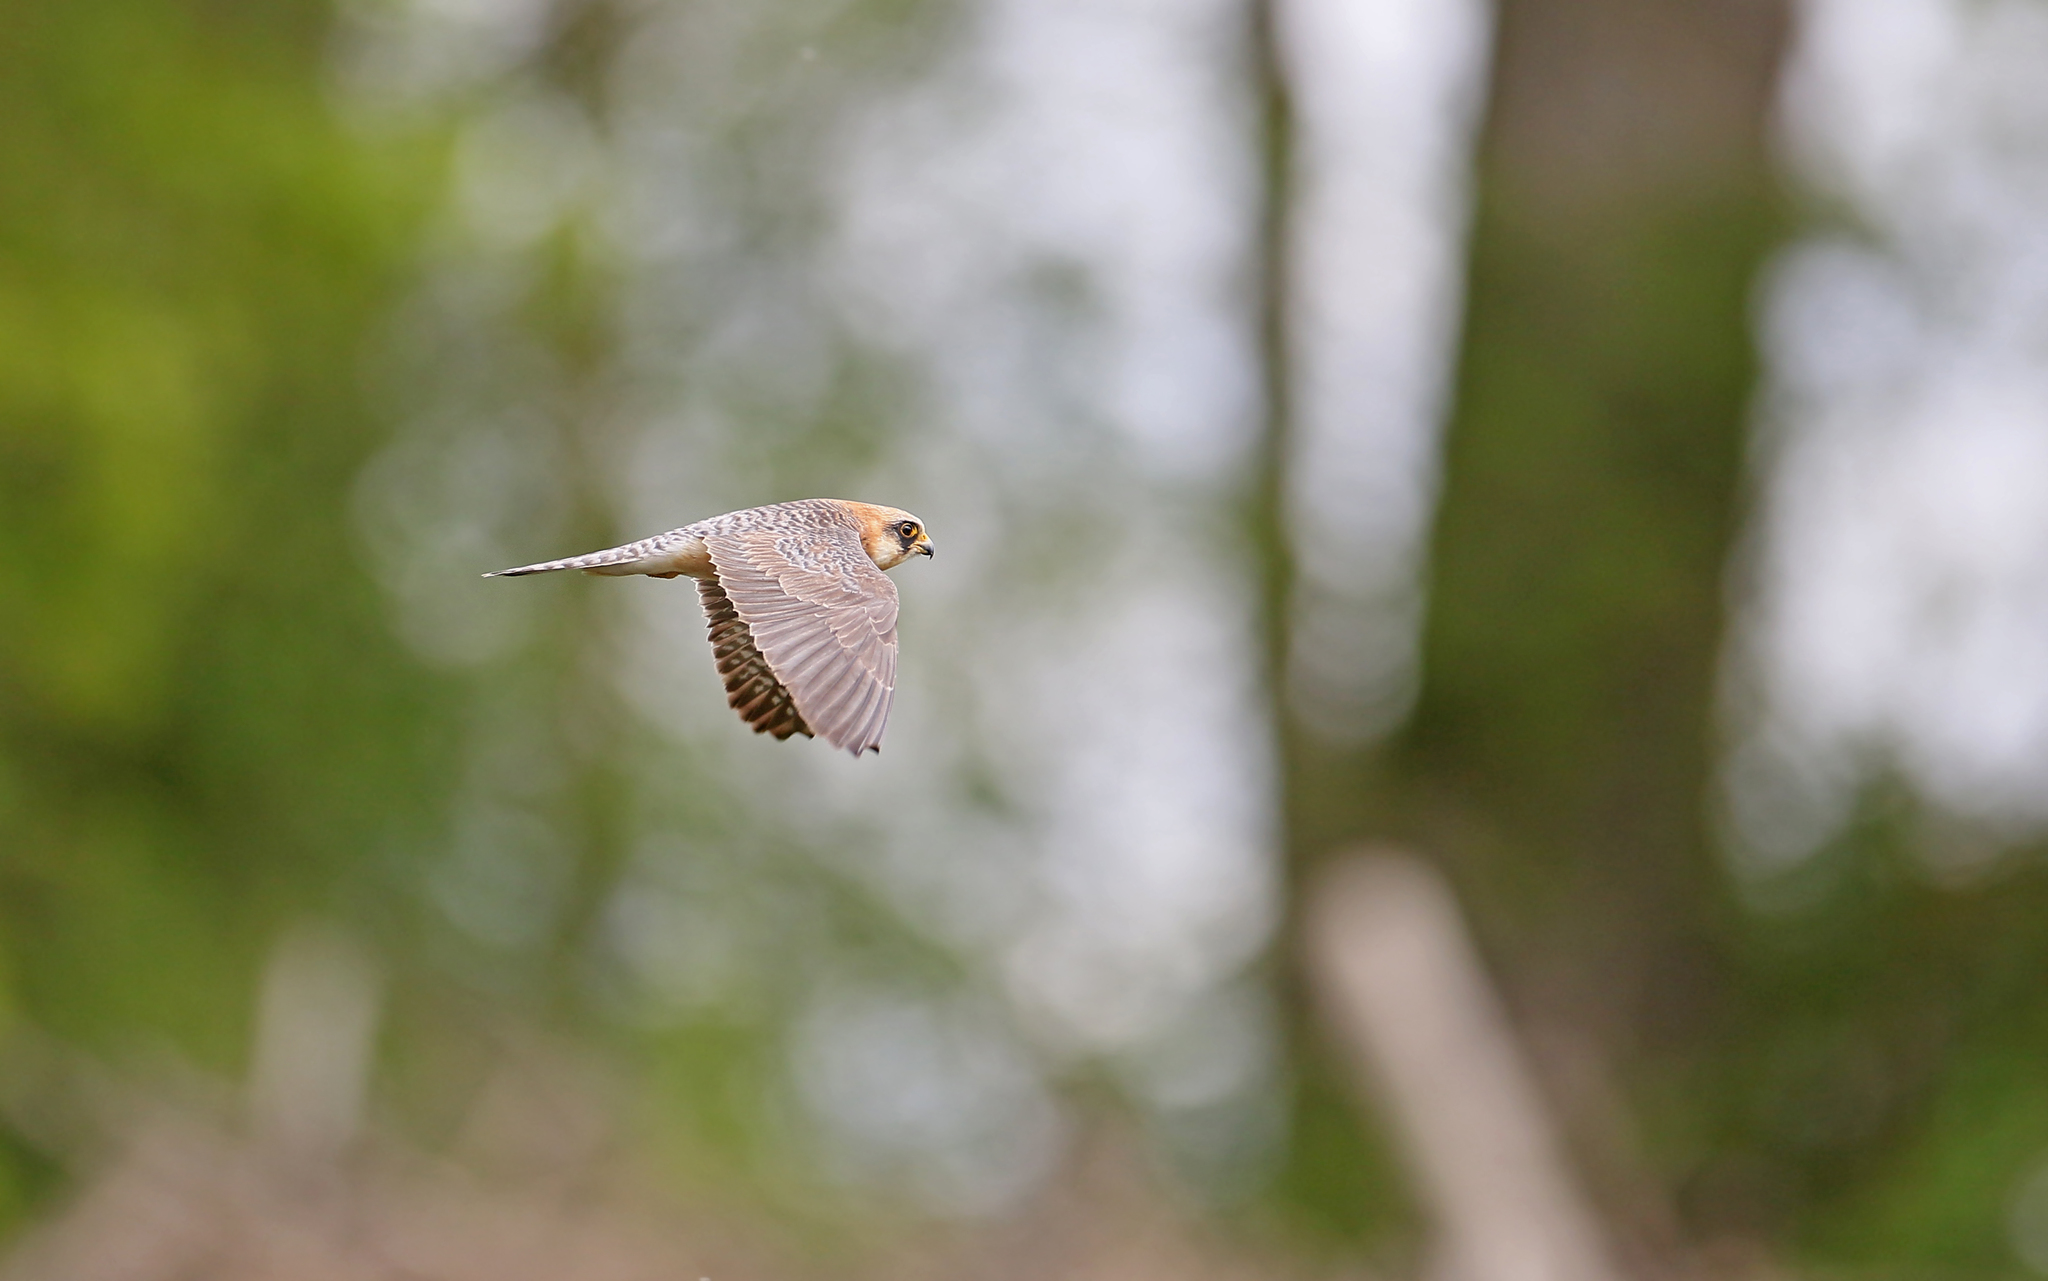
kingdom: Animalia
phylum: Chordata
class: Aves
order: Falconiformes
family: Falconidae
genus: Falco
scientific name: Falco vespertinus
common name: Red-footed falcon
